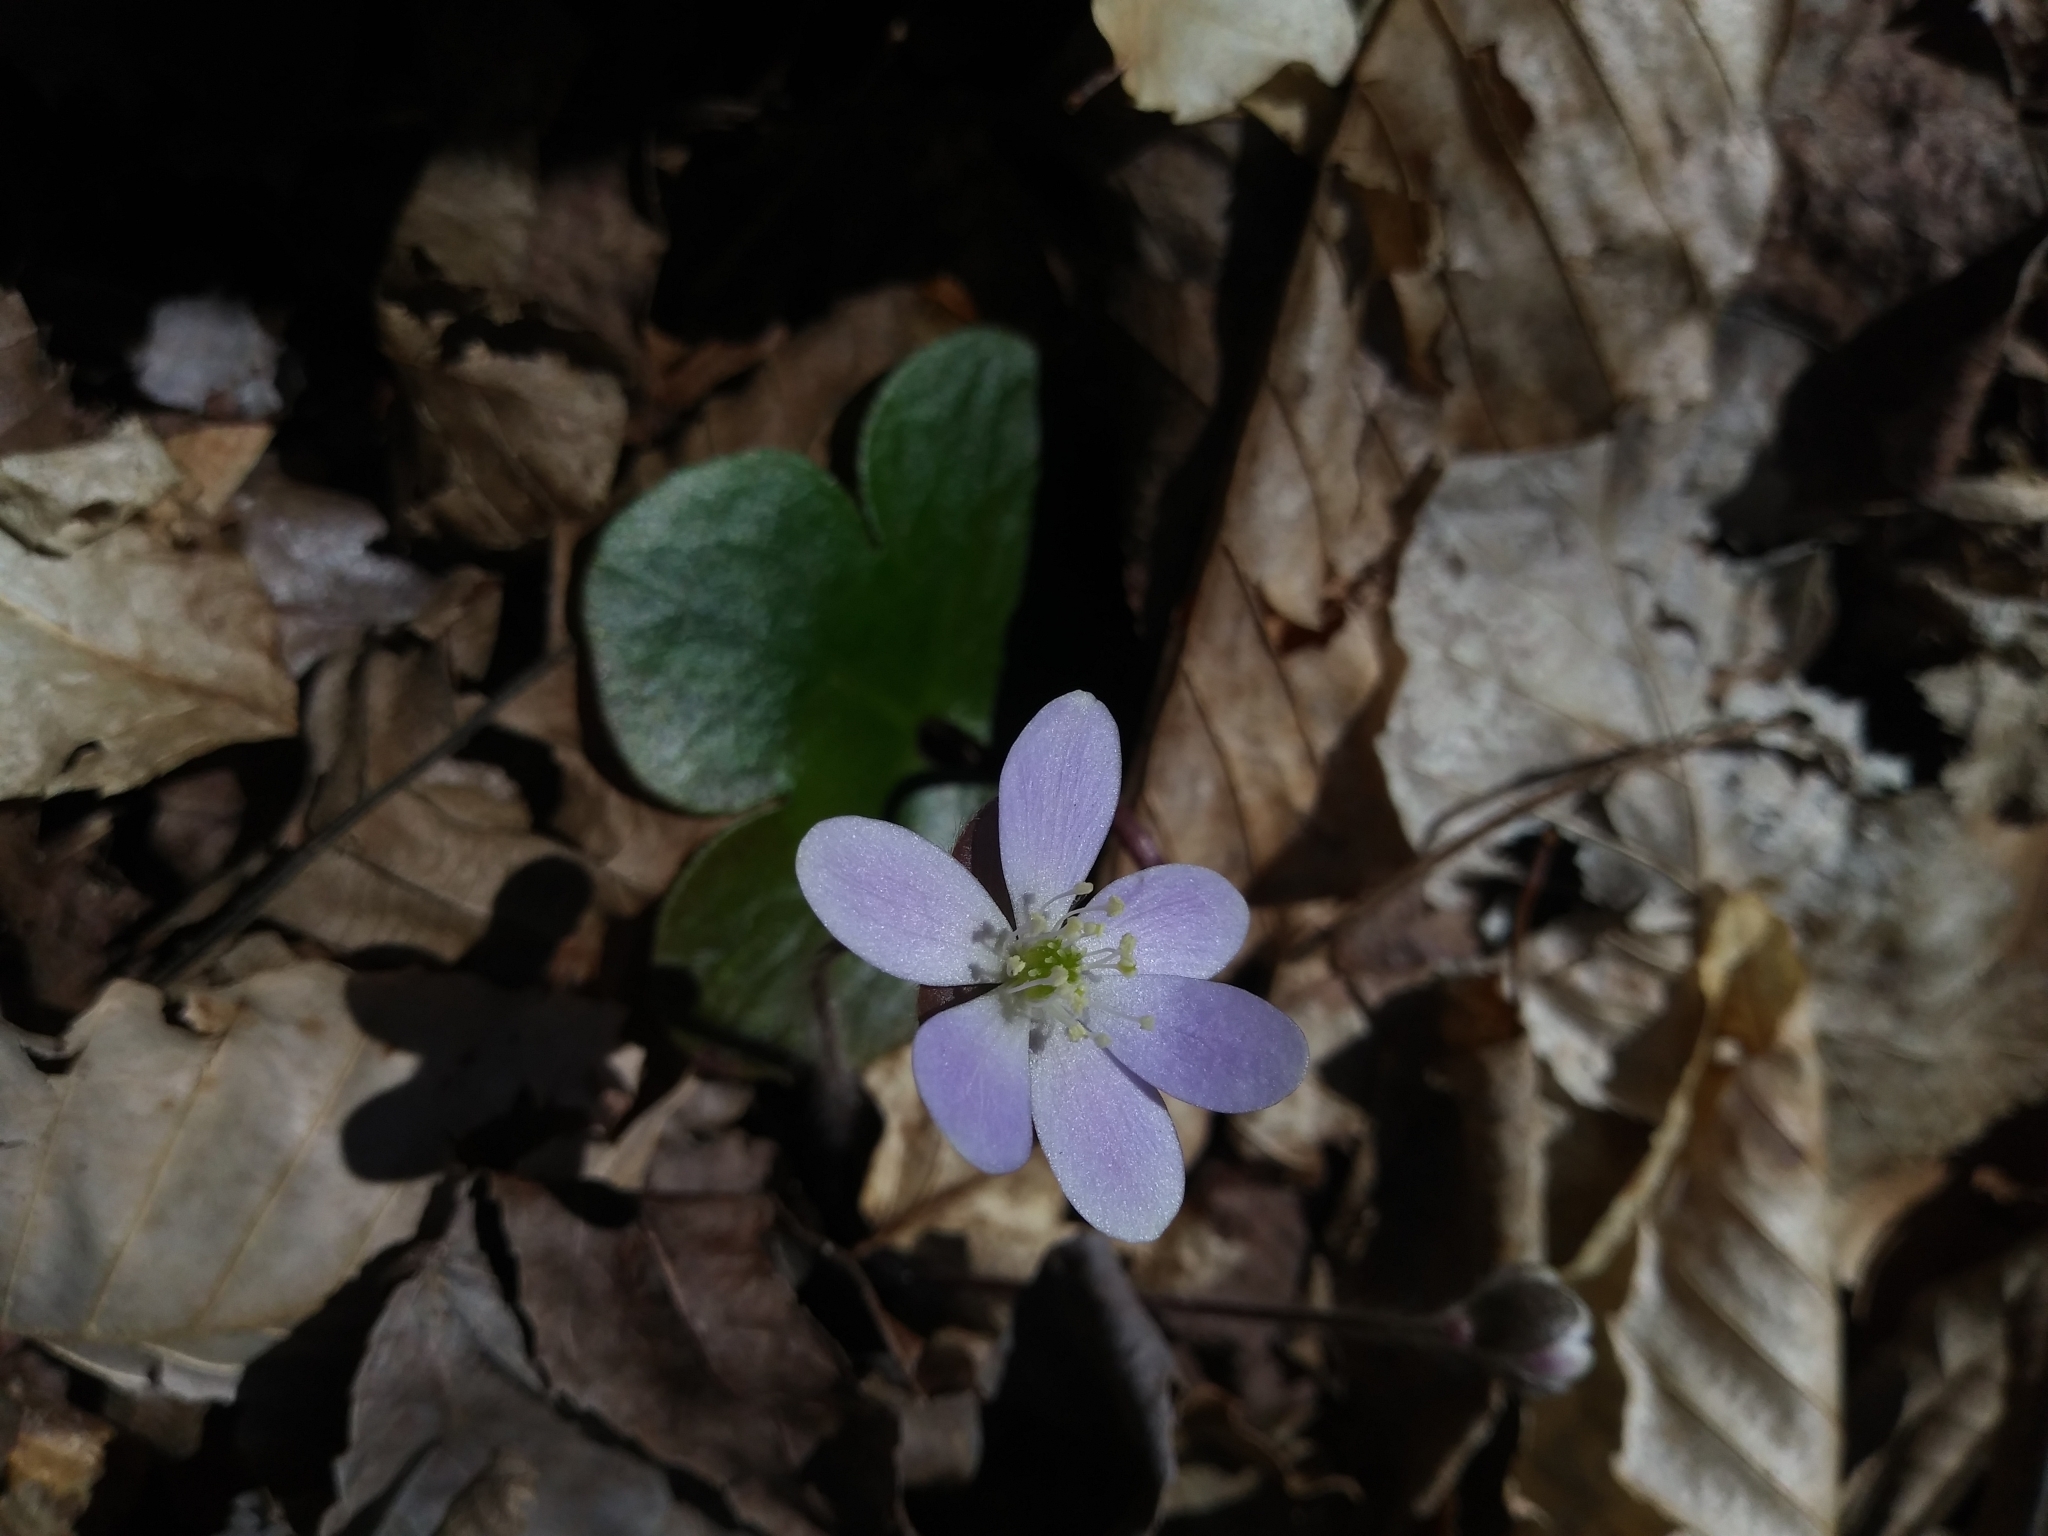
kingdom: Plantae
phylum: Tracheophyta
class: Magnoliopsida
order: Ranunculales
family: Ranunculaceae
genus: Hepatica
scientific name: Hepatica americana
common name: American hepatica
